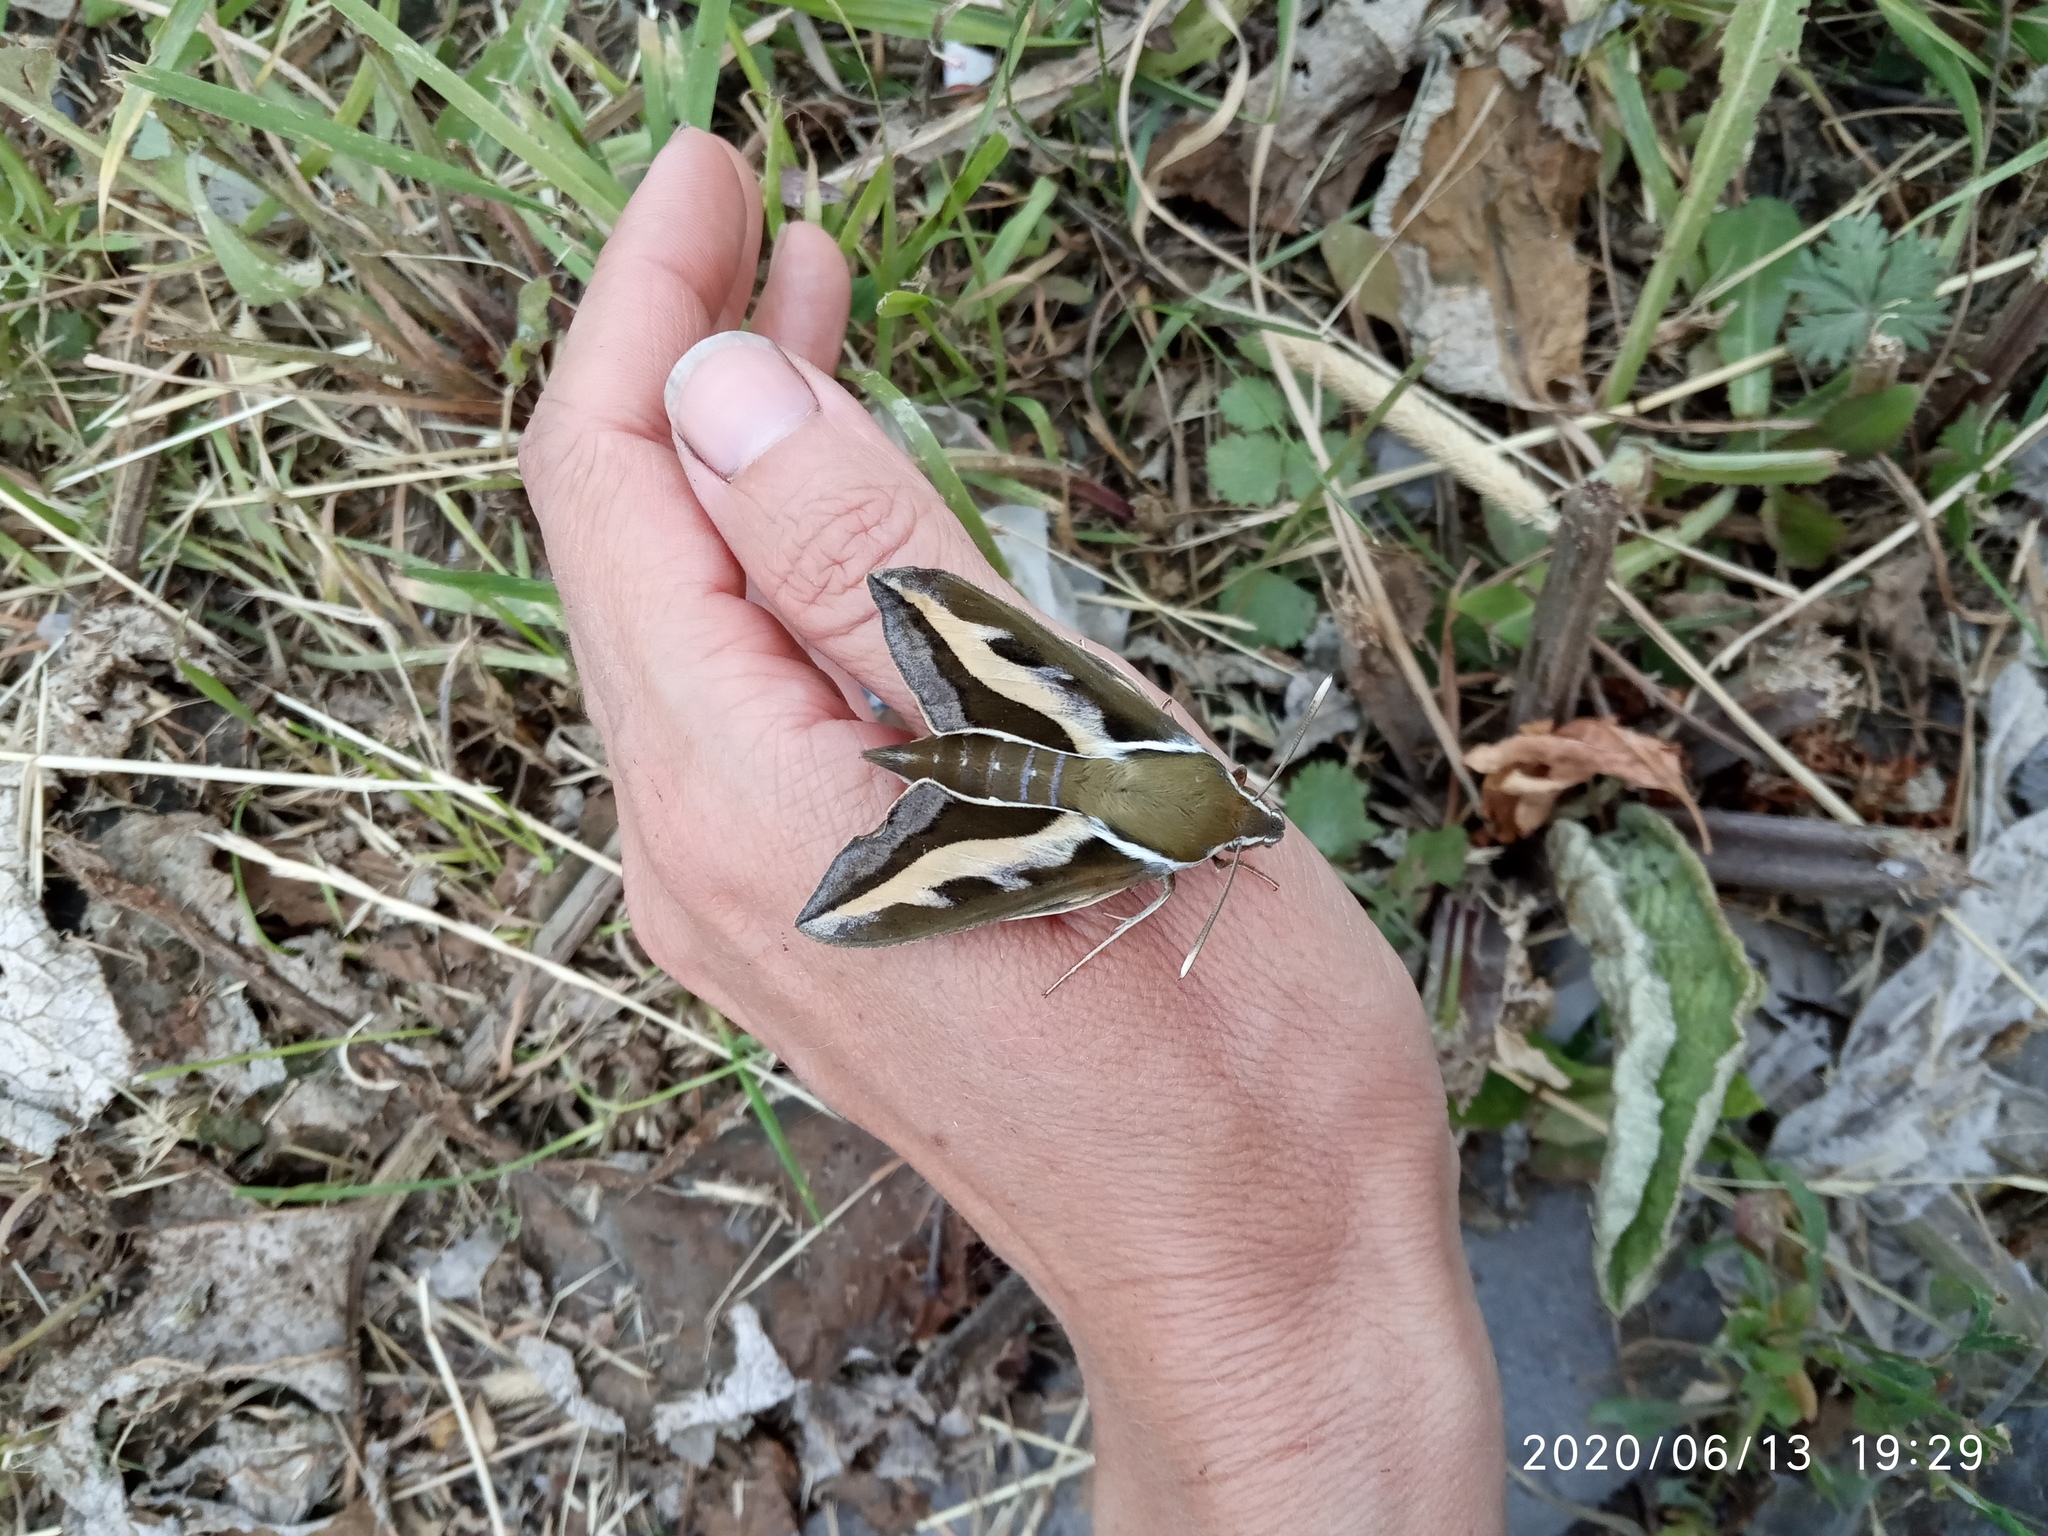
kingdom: Animalia
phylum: Arthropoda
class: Insecta
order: Lepidoptera
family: Sphingidae
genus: Hyles
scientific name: Hyles gallii
